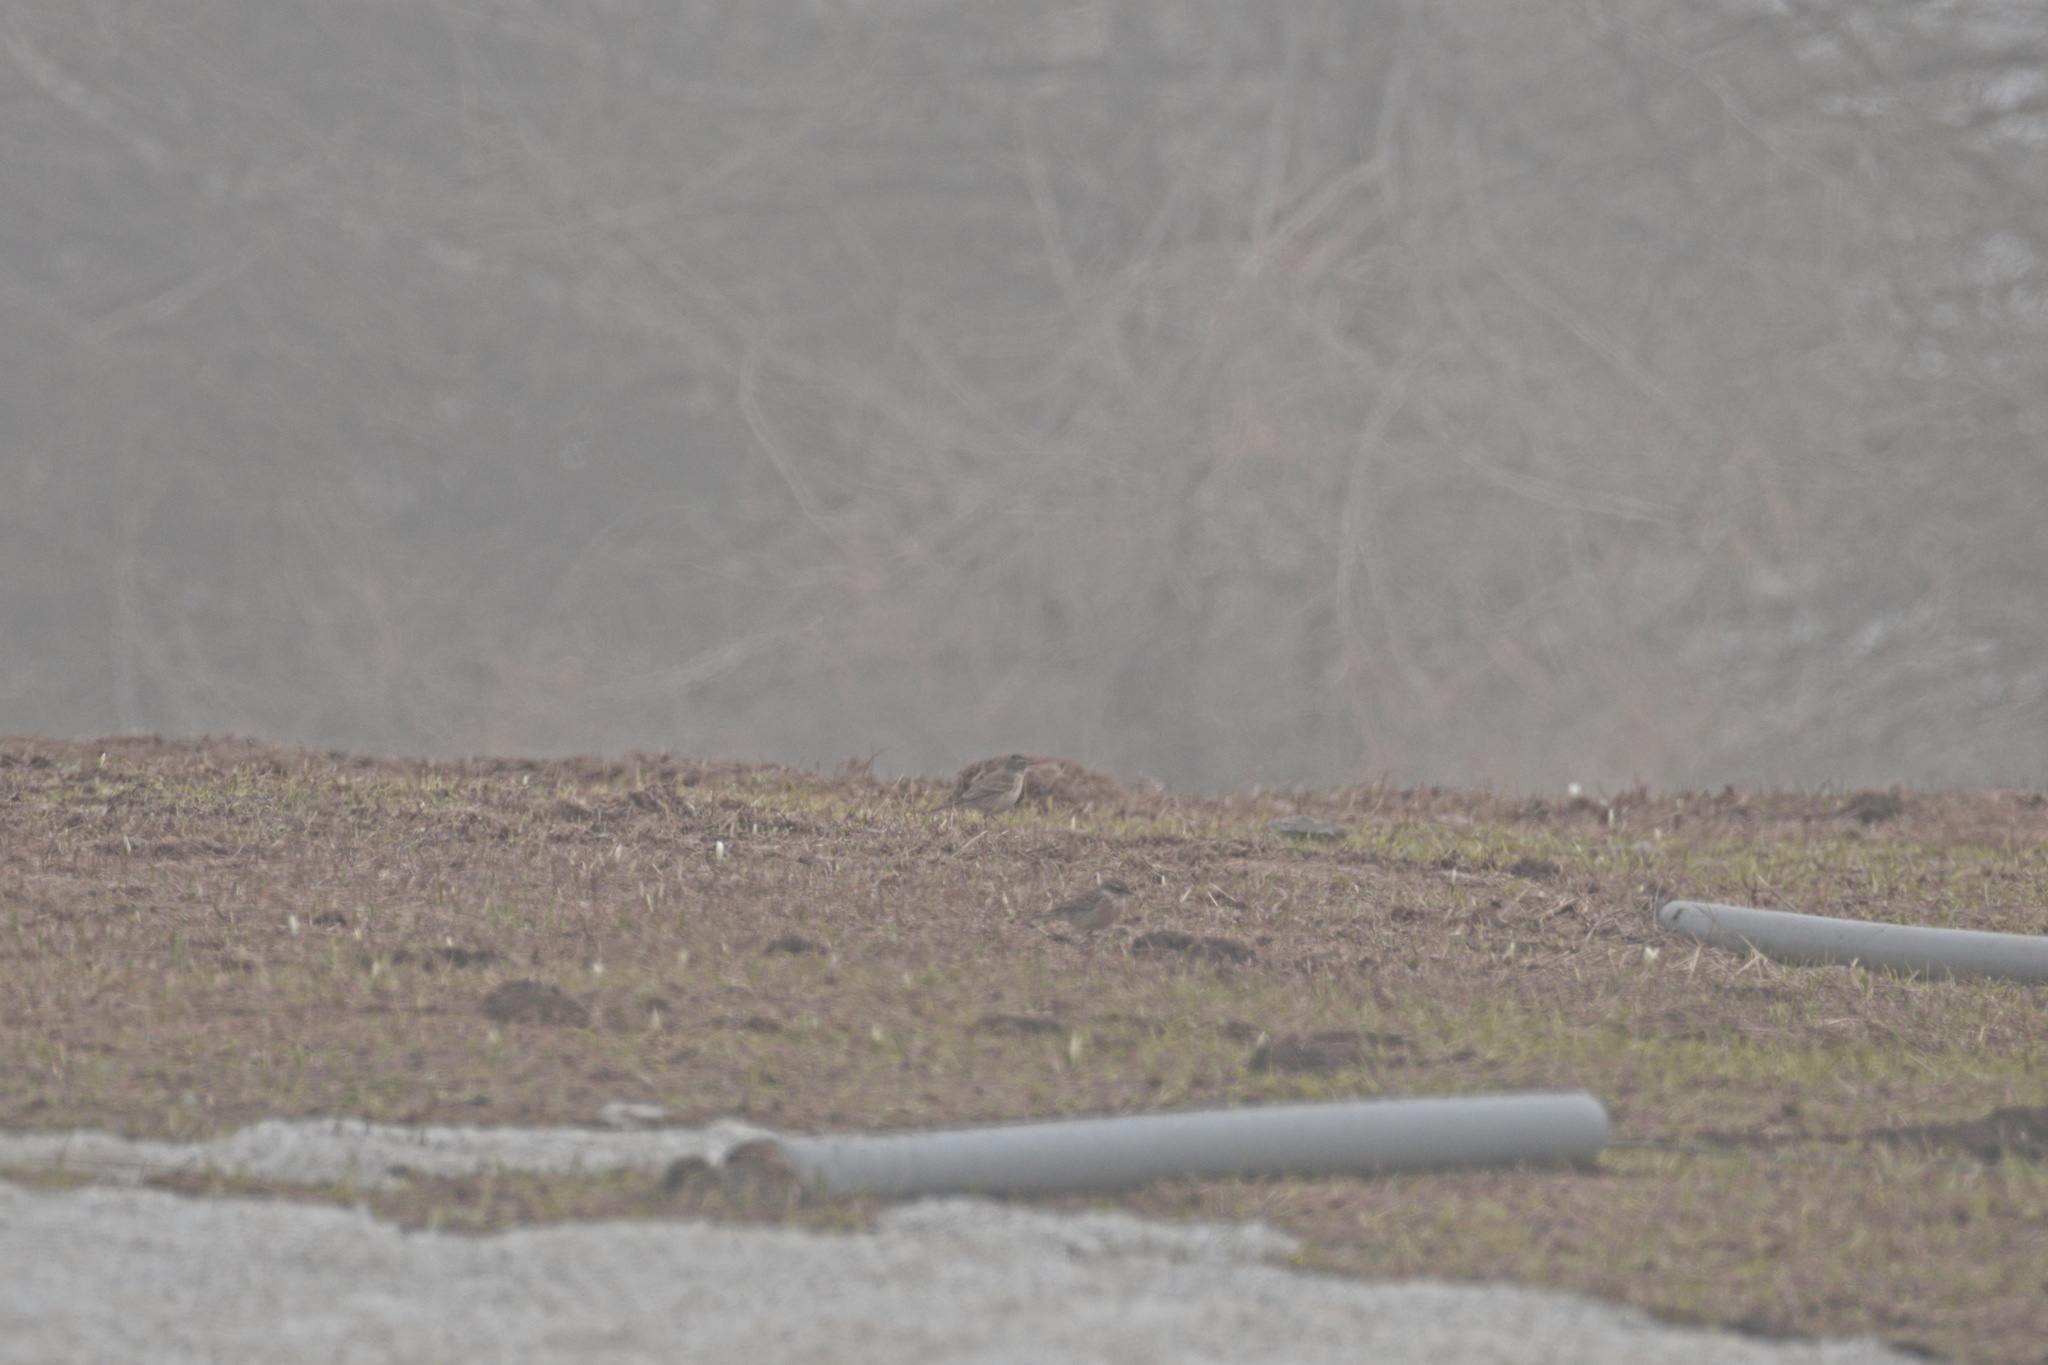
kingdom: Animalia
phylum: Chordata
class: Aves
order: Passeriformes
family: Motacillidae
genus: Anthus
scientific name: Anthus spinoletta
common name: Water pipit
